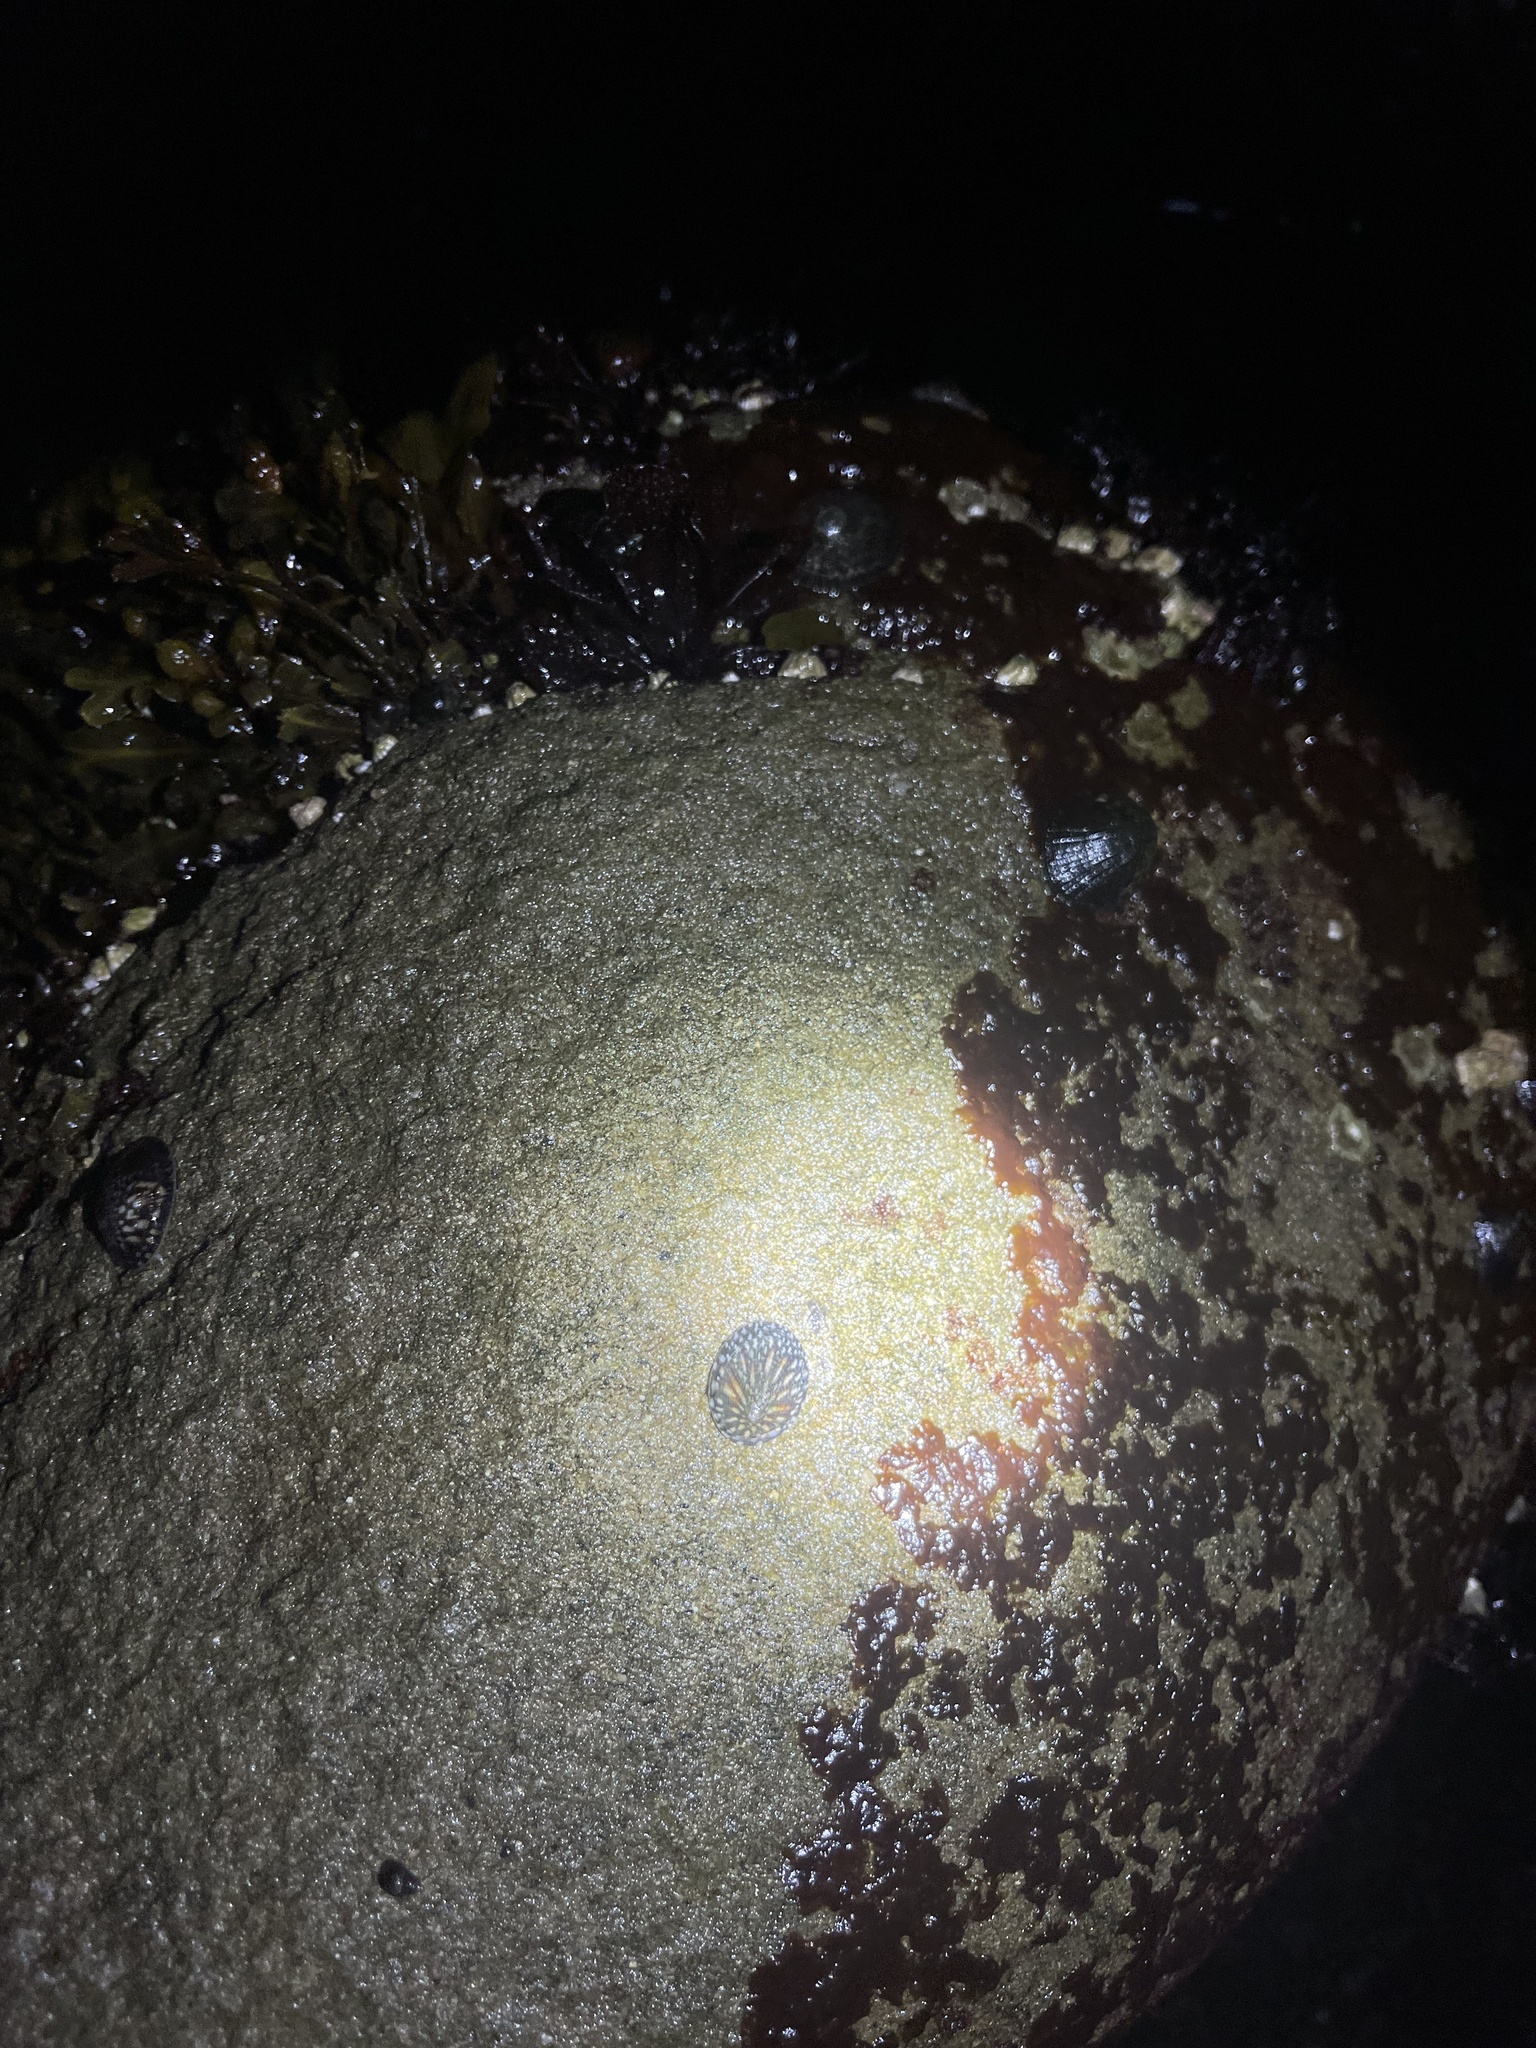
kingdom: Animalia
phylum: Mollusca
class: Gastropoda
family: Lottiidae
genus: Lottia
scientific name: Lottia scutum
